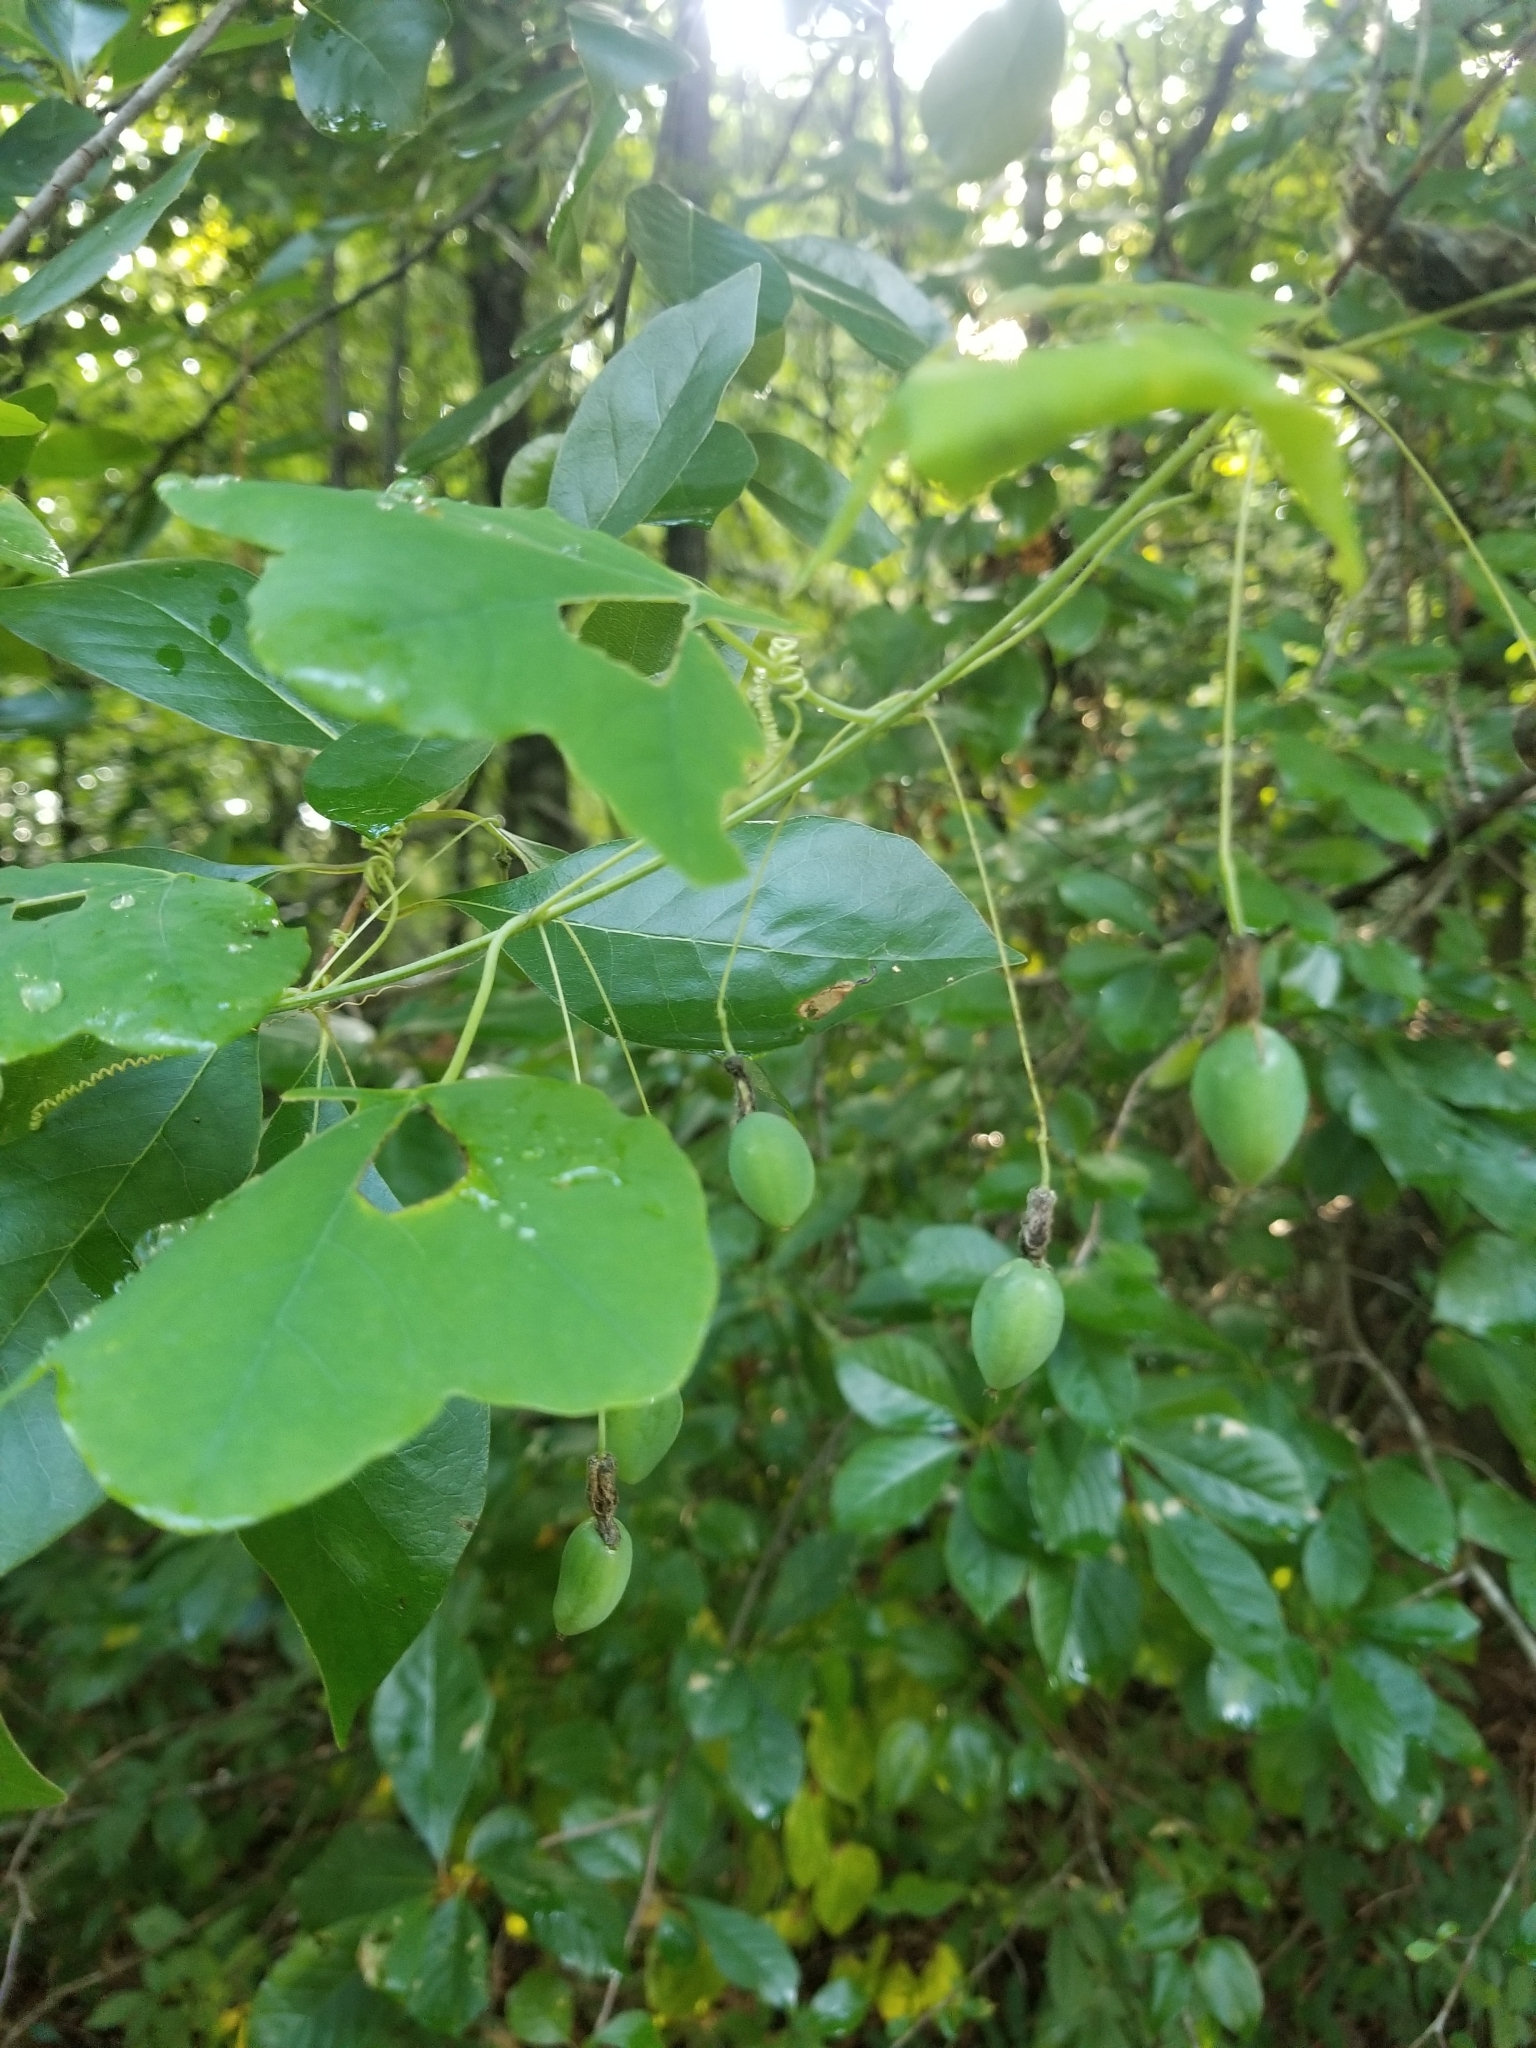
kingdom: Plantae
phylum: Tracheophyta
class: Magnoliopsida
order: Malpighiales
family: Passifloraceae
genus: Passiflora
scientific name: Passiflora lutea
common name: Yellow passionflower
